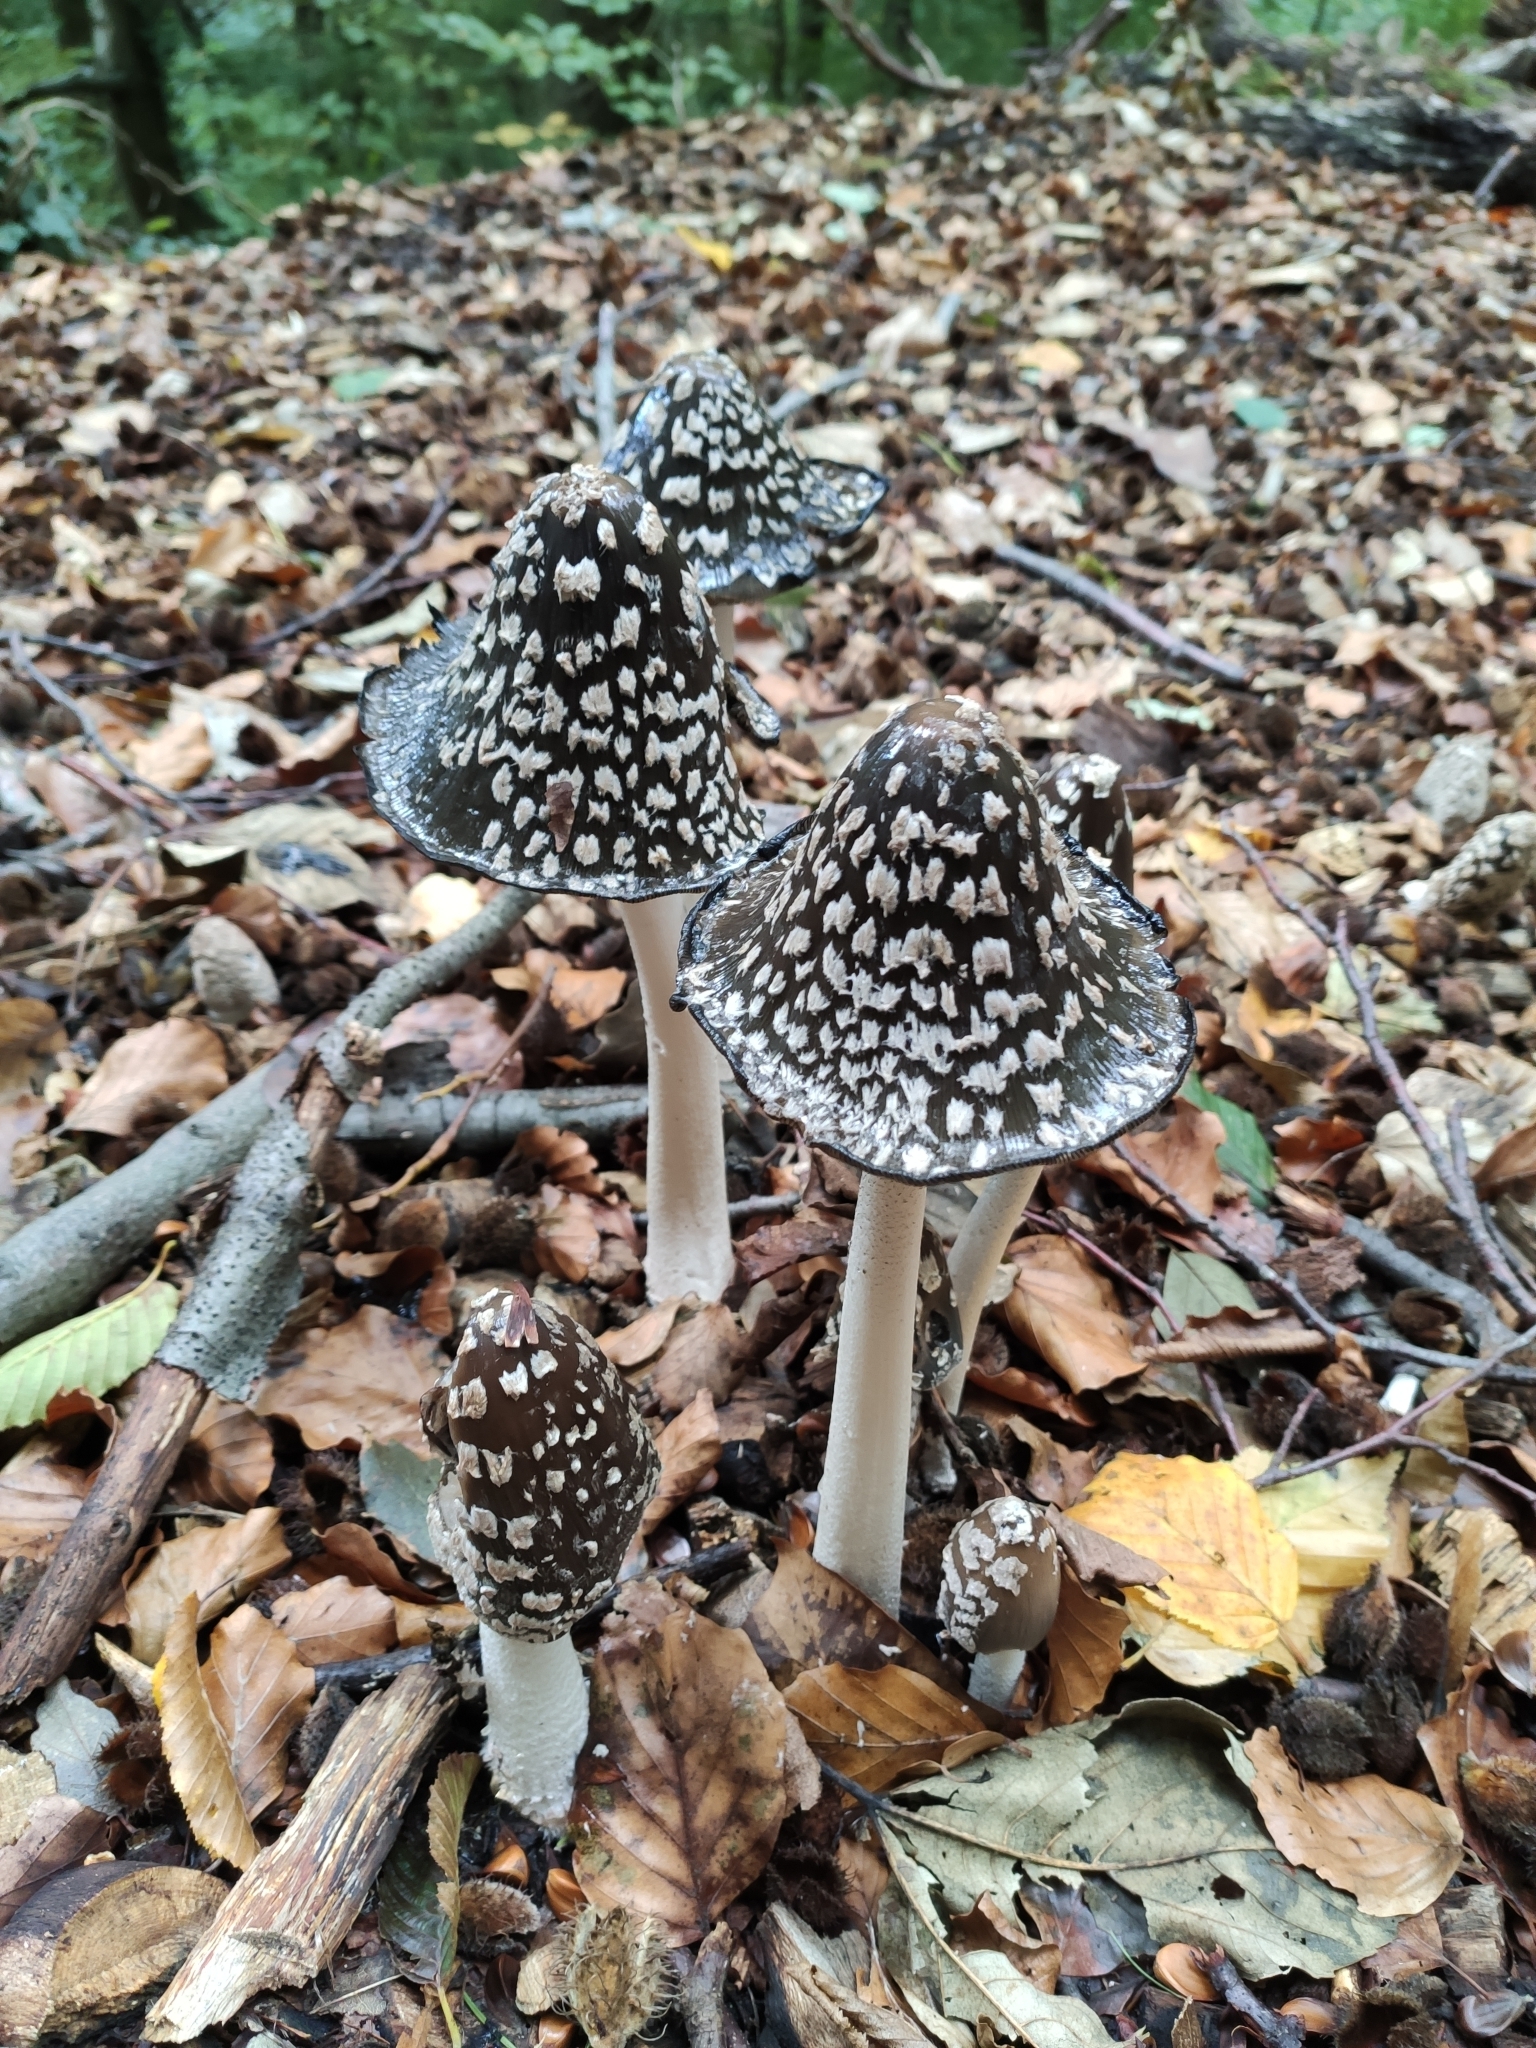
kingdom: Fungi
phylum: Basidiomycota
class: Agaricomycetes
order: Agaricales
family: Psathyrellaceae
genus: Coprinopsis
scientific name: Coprinopsis picacea
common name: Magpie inkcap
